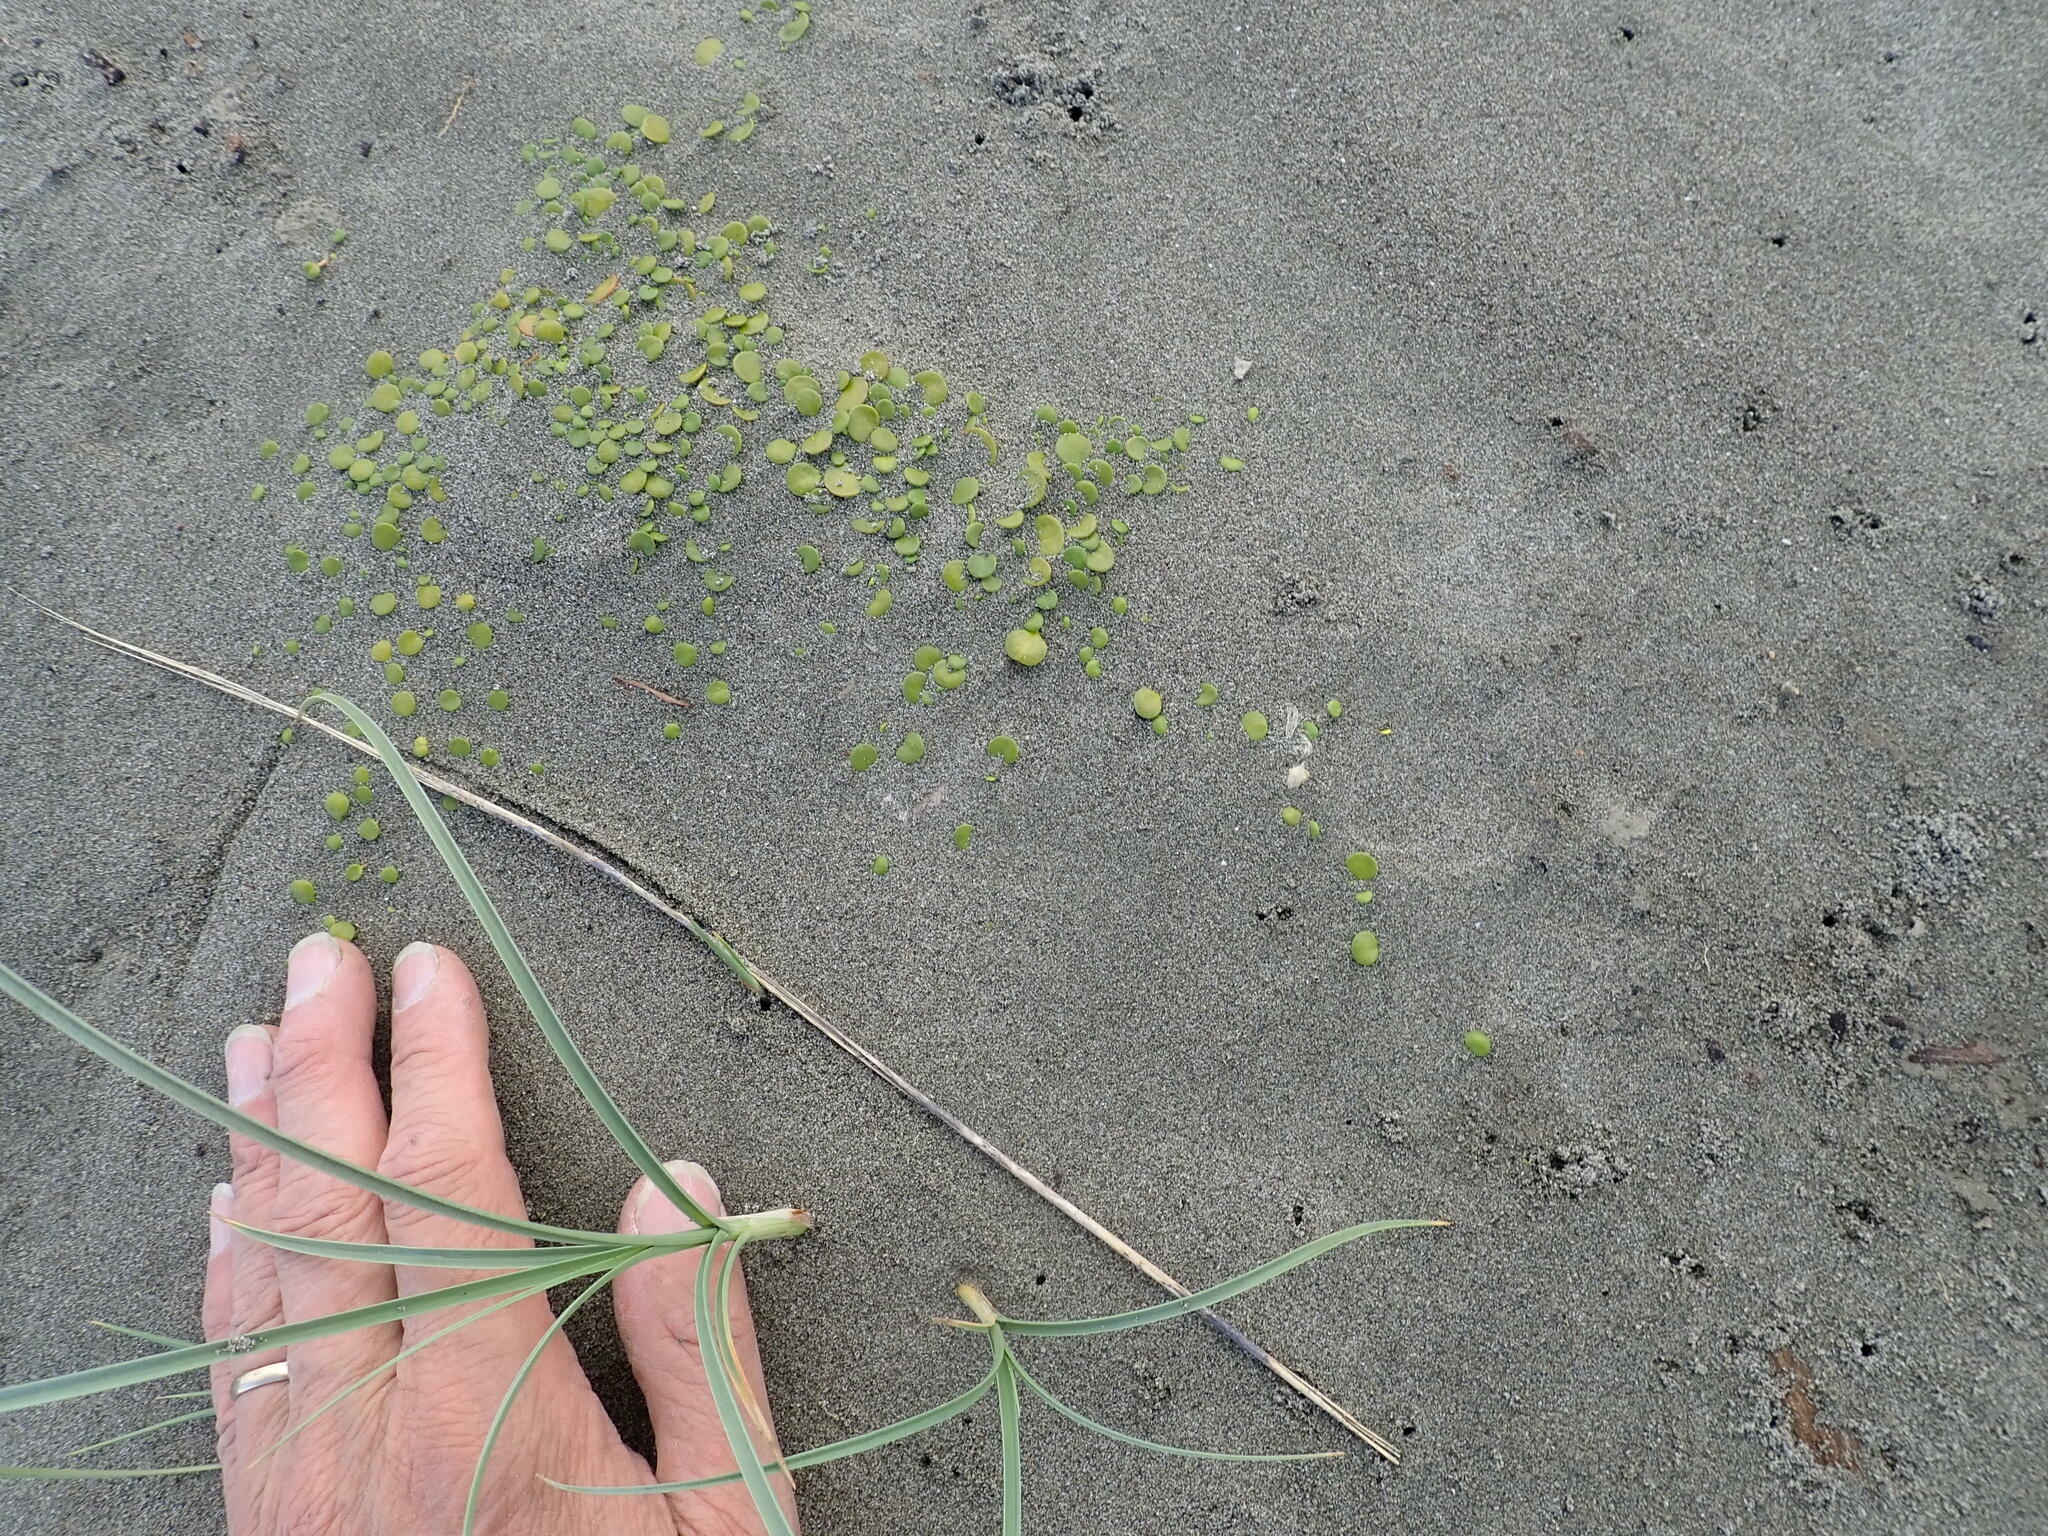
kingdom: Plantae
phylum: Tracheophyta
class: Magnoliopsida
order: Asterales
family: Goodeniaceae
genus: Goodenia
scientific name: Goodenia heenanii
